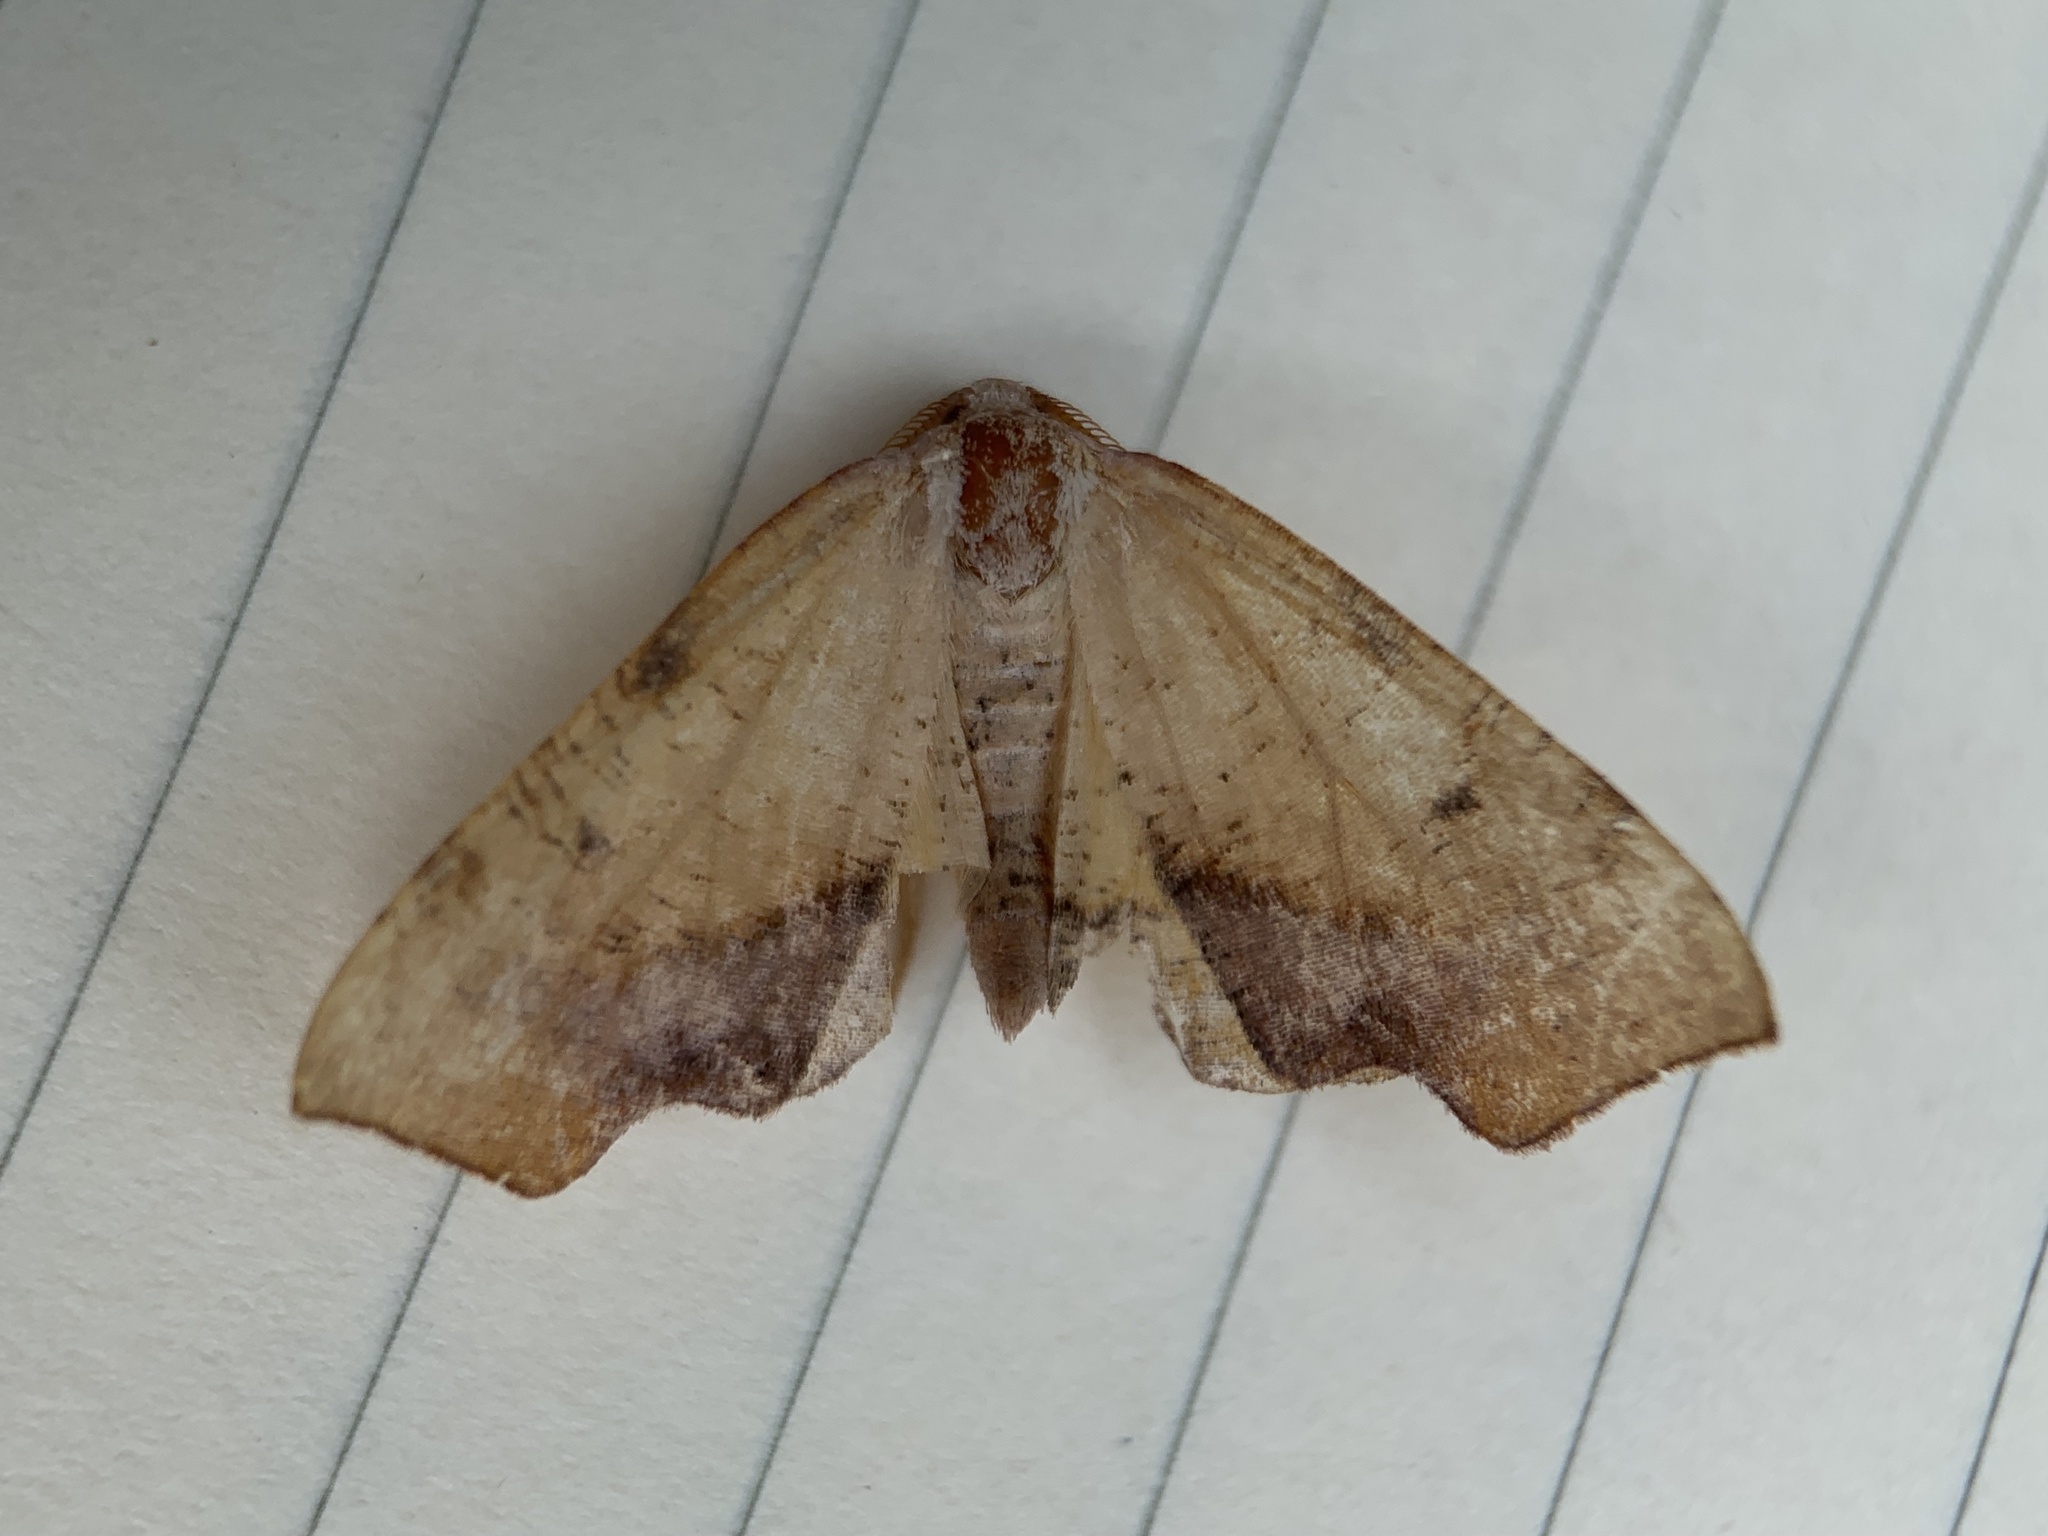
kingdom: Animalia
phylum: Arthropoda
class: Insecta
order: Lepidoptera
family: Geometridae
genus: Plagodis
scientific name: Plagodis fervidaria
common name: Fervid plagodis
